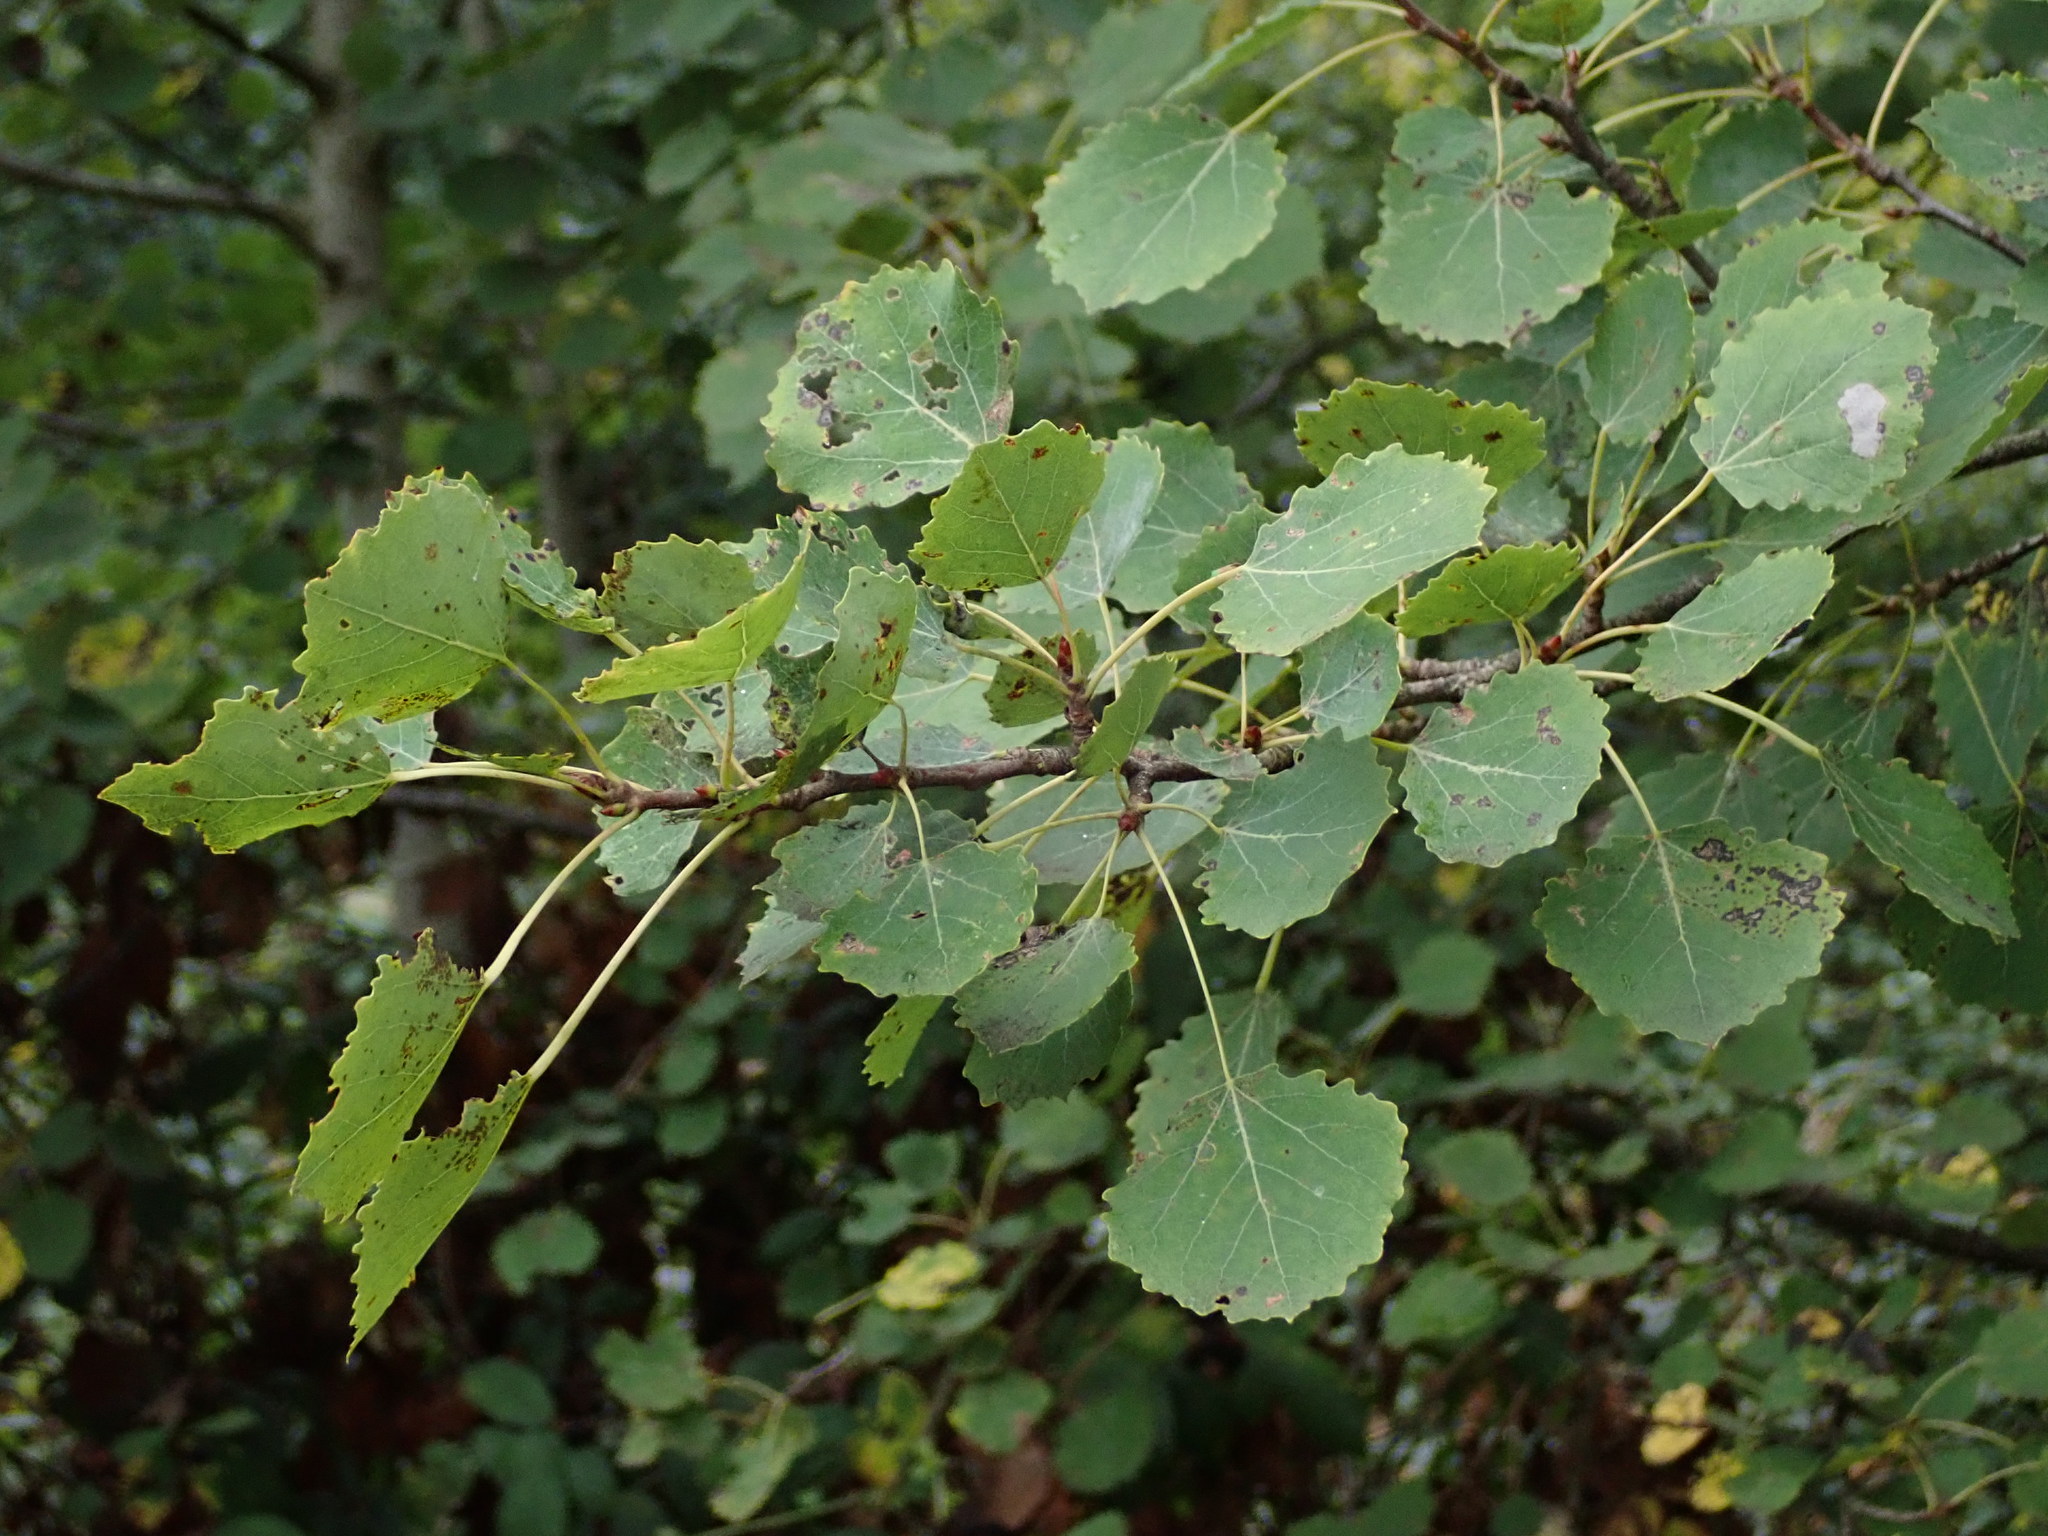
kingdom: Plantae
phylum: Tracheophyta
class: Magnoliopsida
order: Malpighiales
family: Salicaceae
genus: Populus
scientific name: Populus tremula
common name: European aspen
